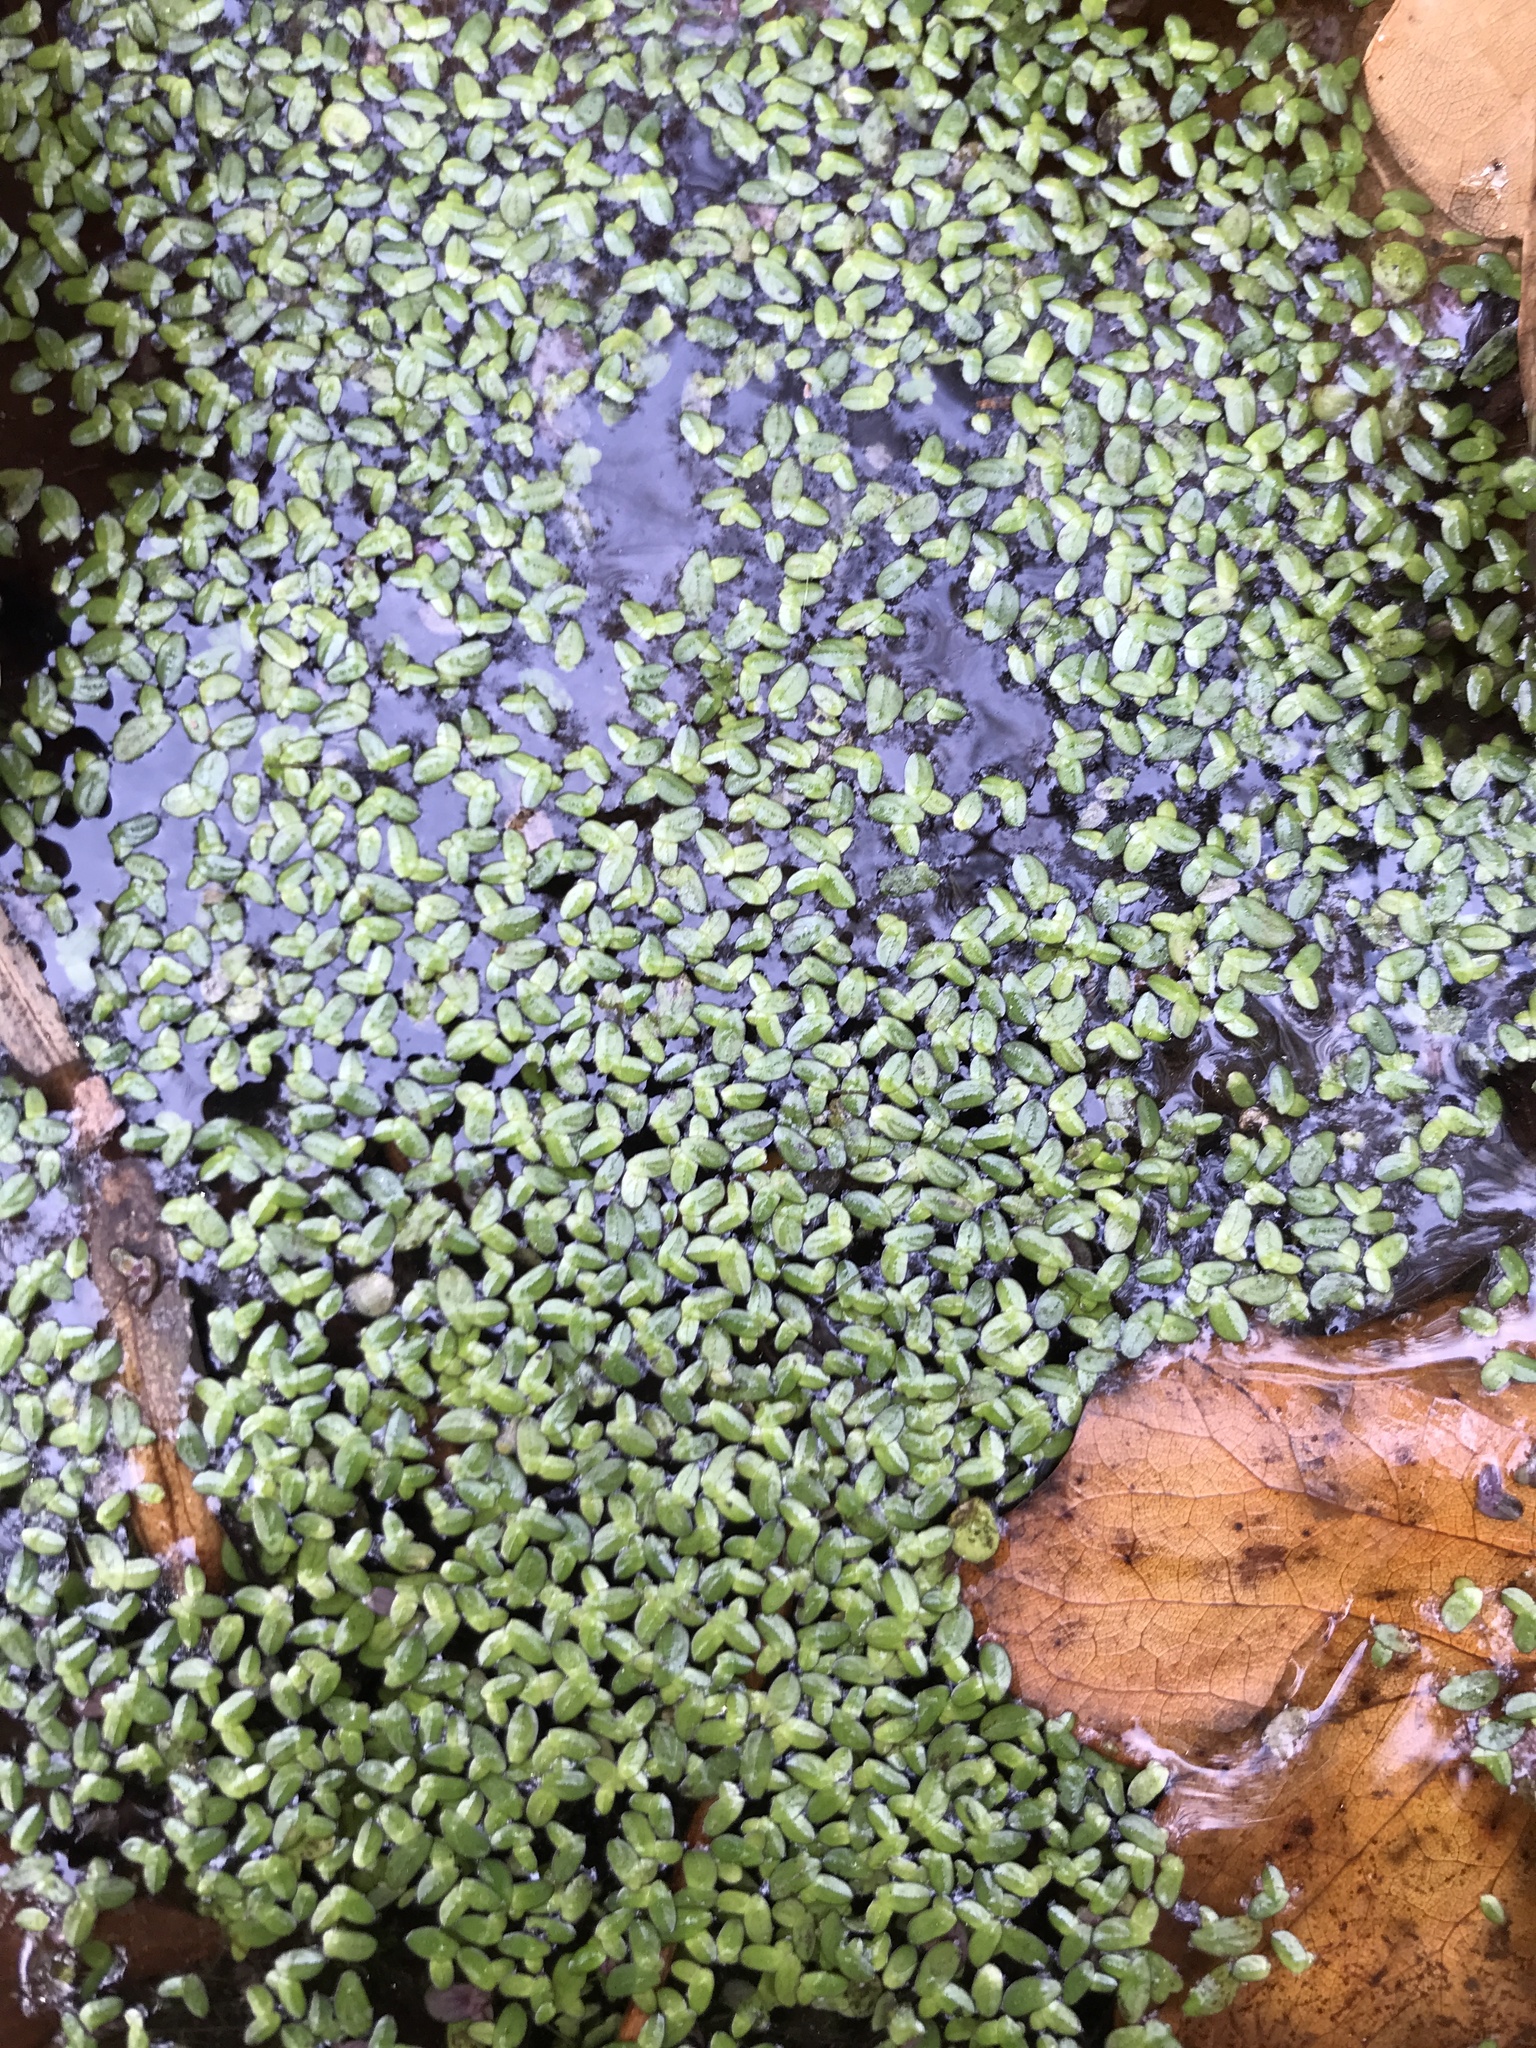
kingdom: Plantae
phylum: Tracheophyta
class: Liliopsida
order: Alismatales
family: Araceae
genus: Lemna
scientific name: Lemna minor
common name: Common duckweed
